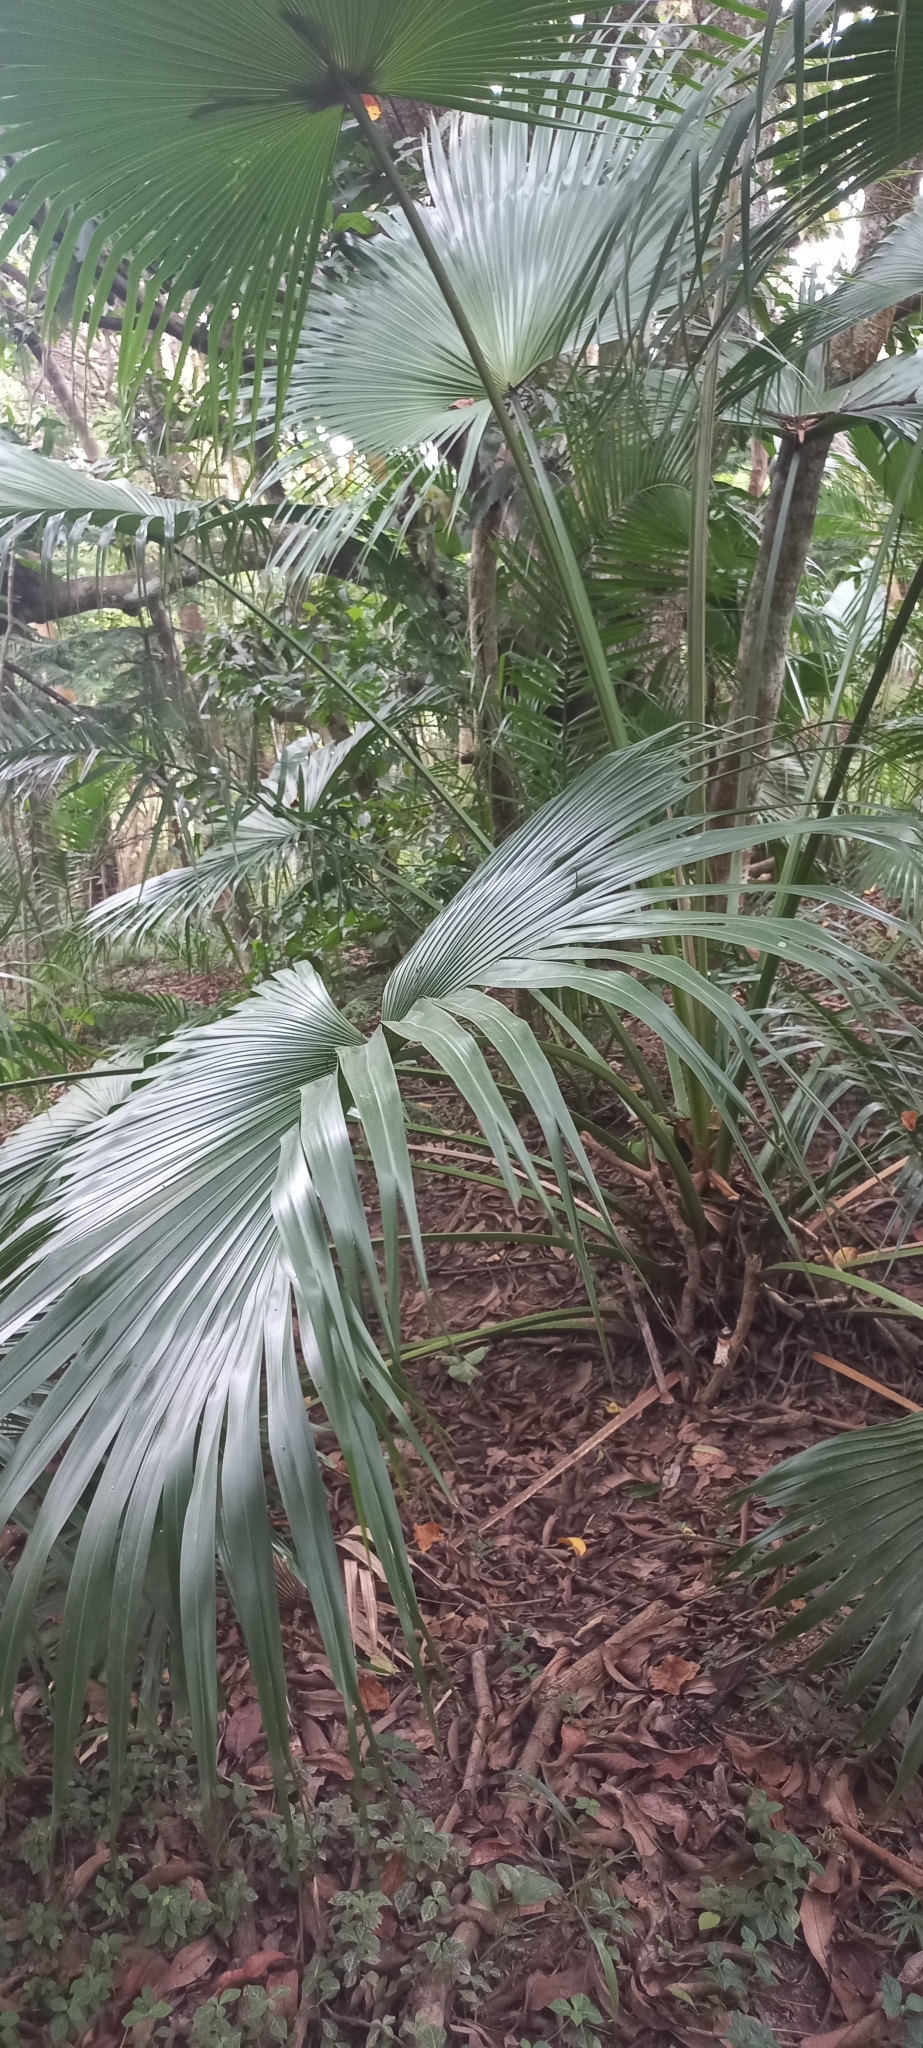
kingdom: Plantae
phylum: Tracheophyta
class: Liliopsida
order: Arecales
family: Arecaceae
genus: Livistona
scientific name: Livistona chinensis
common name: Fountain palm
